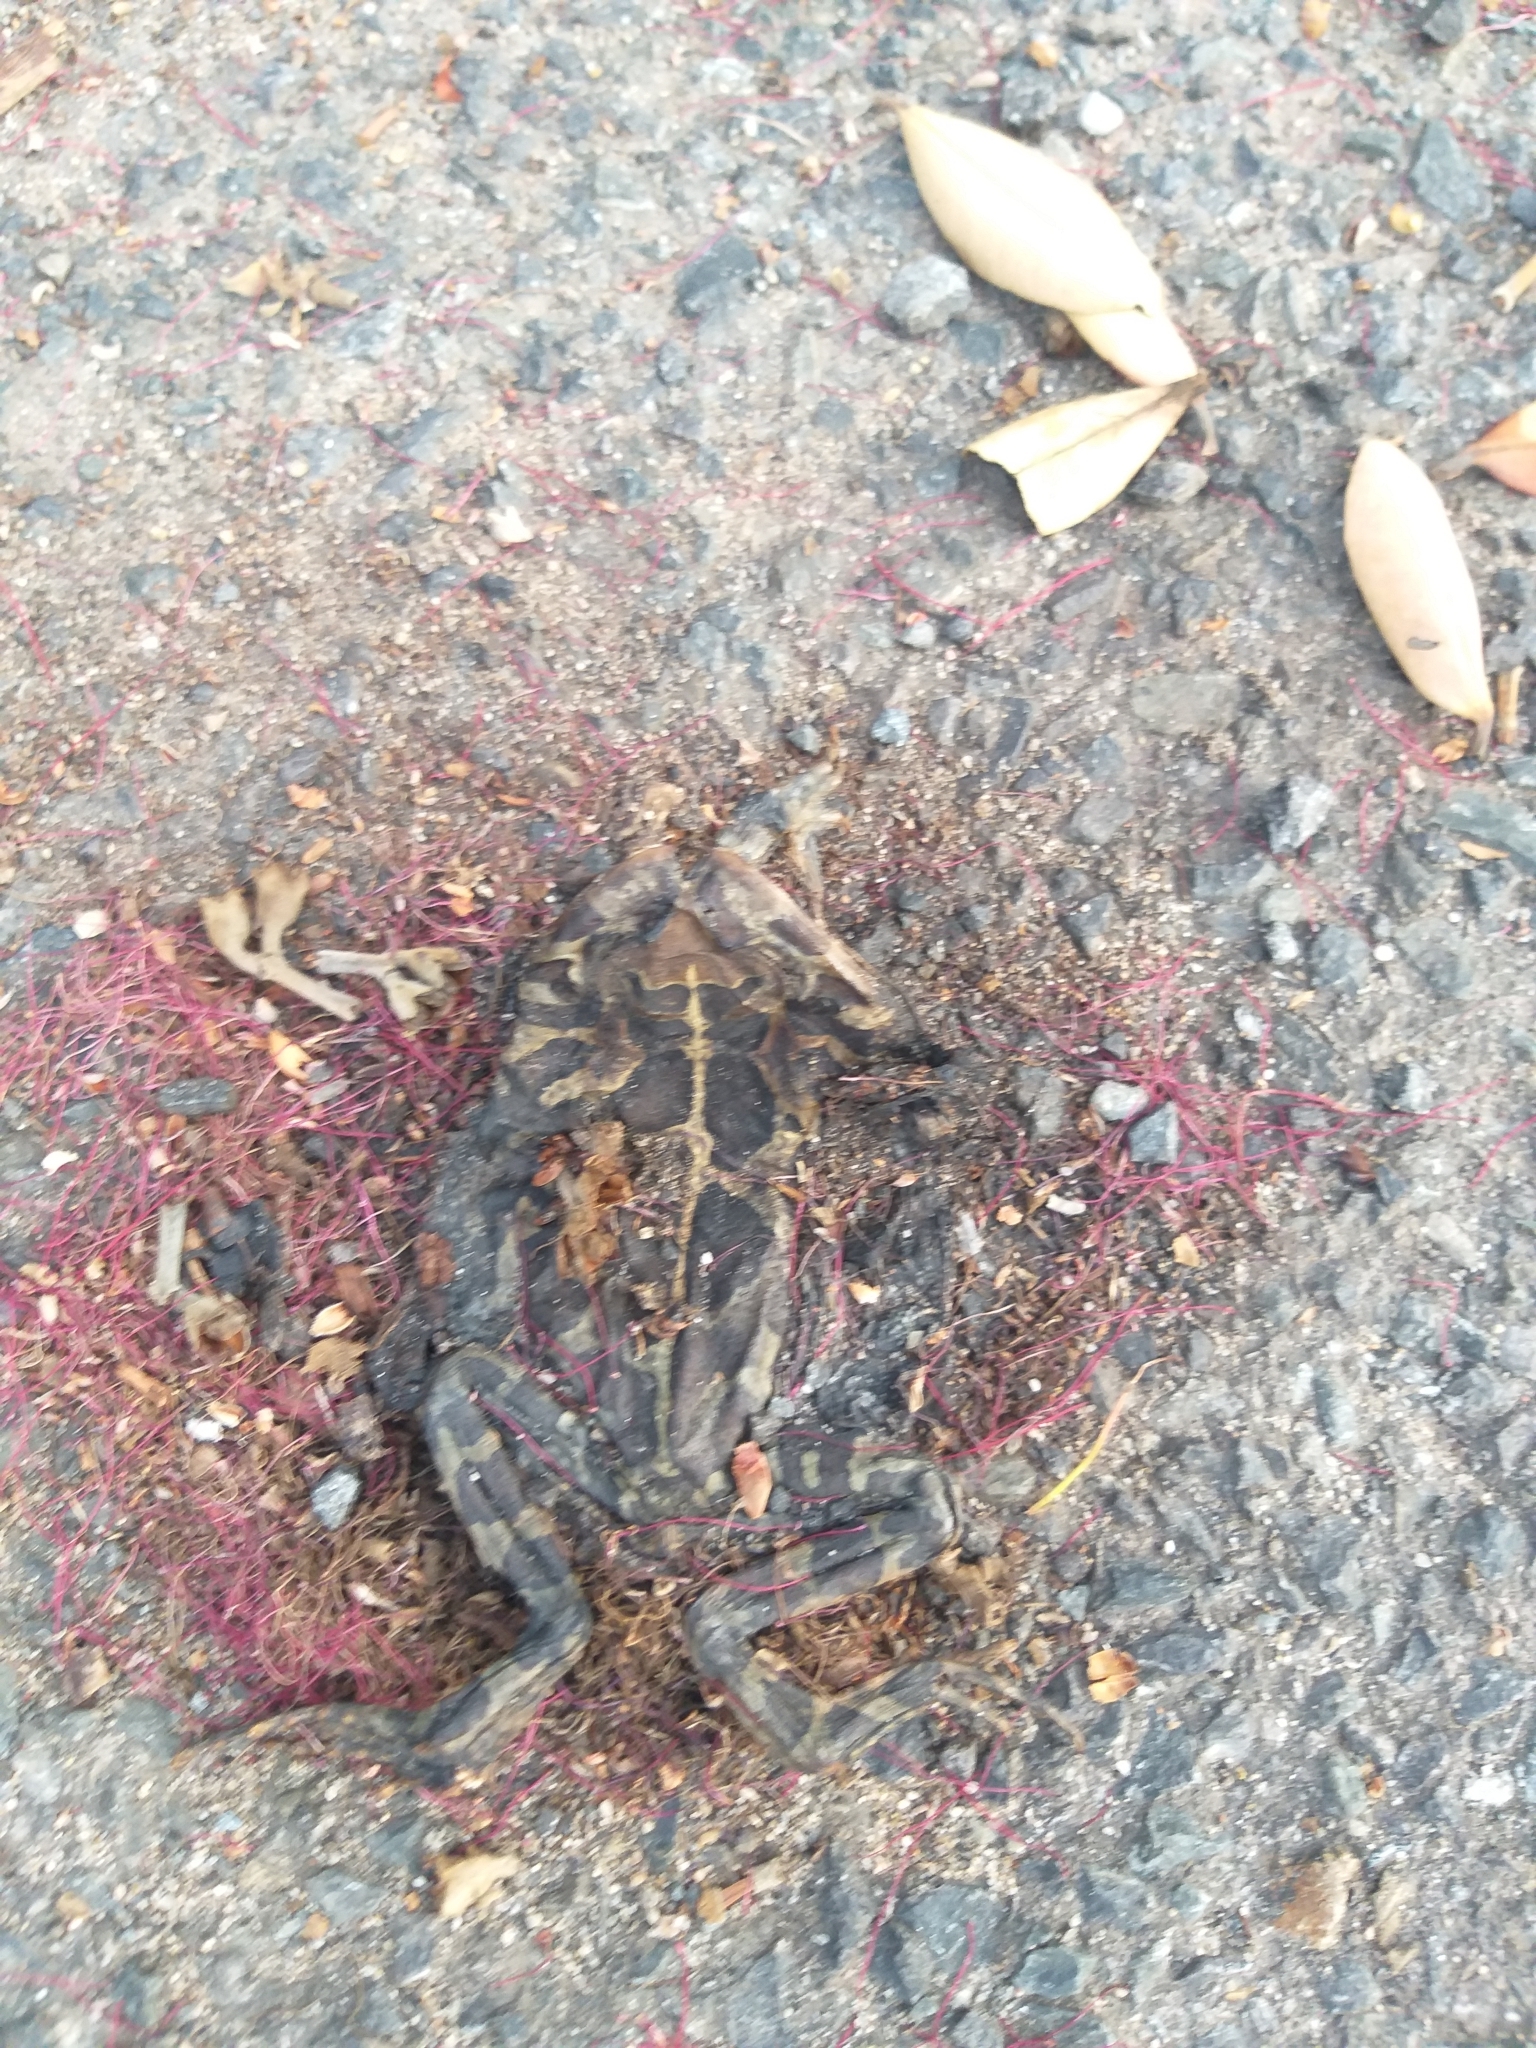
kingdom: Animalia
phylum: Chordata
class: Amphibia
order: Anura
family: Bufonidae
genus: Sclerophrys
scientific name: Sclerophrys pantherina
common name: Panther toad
